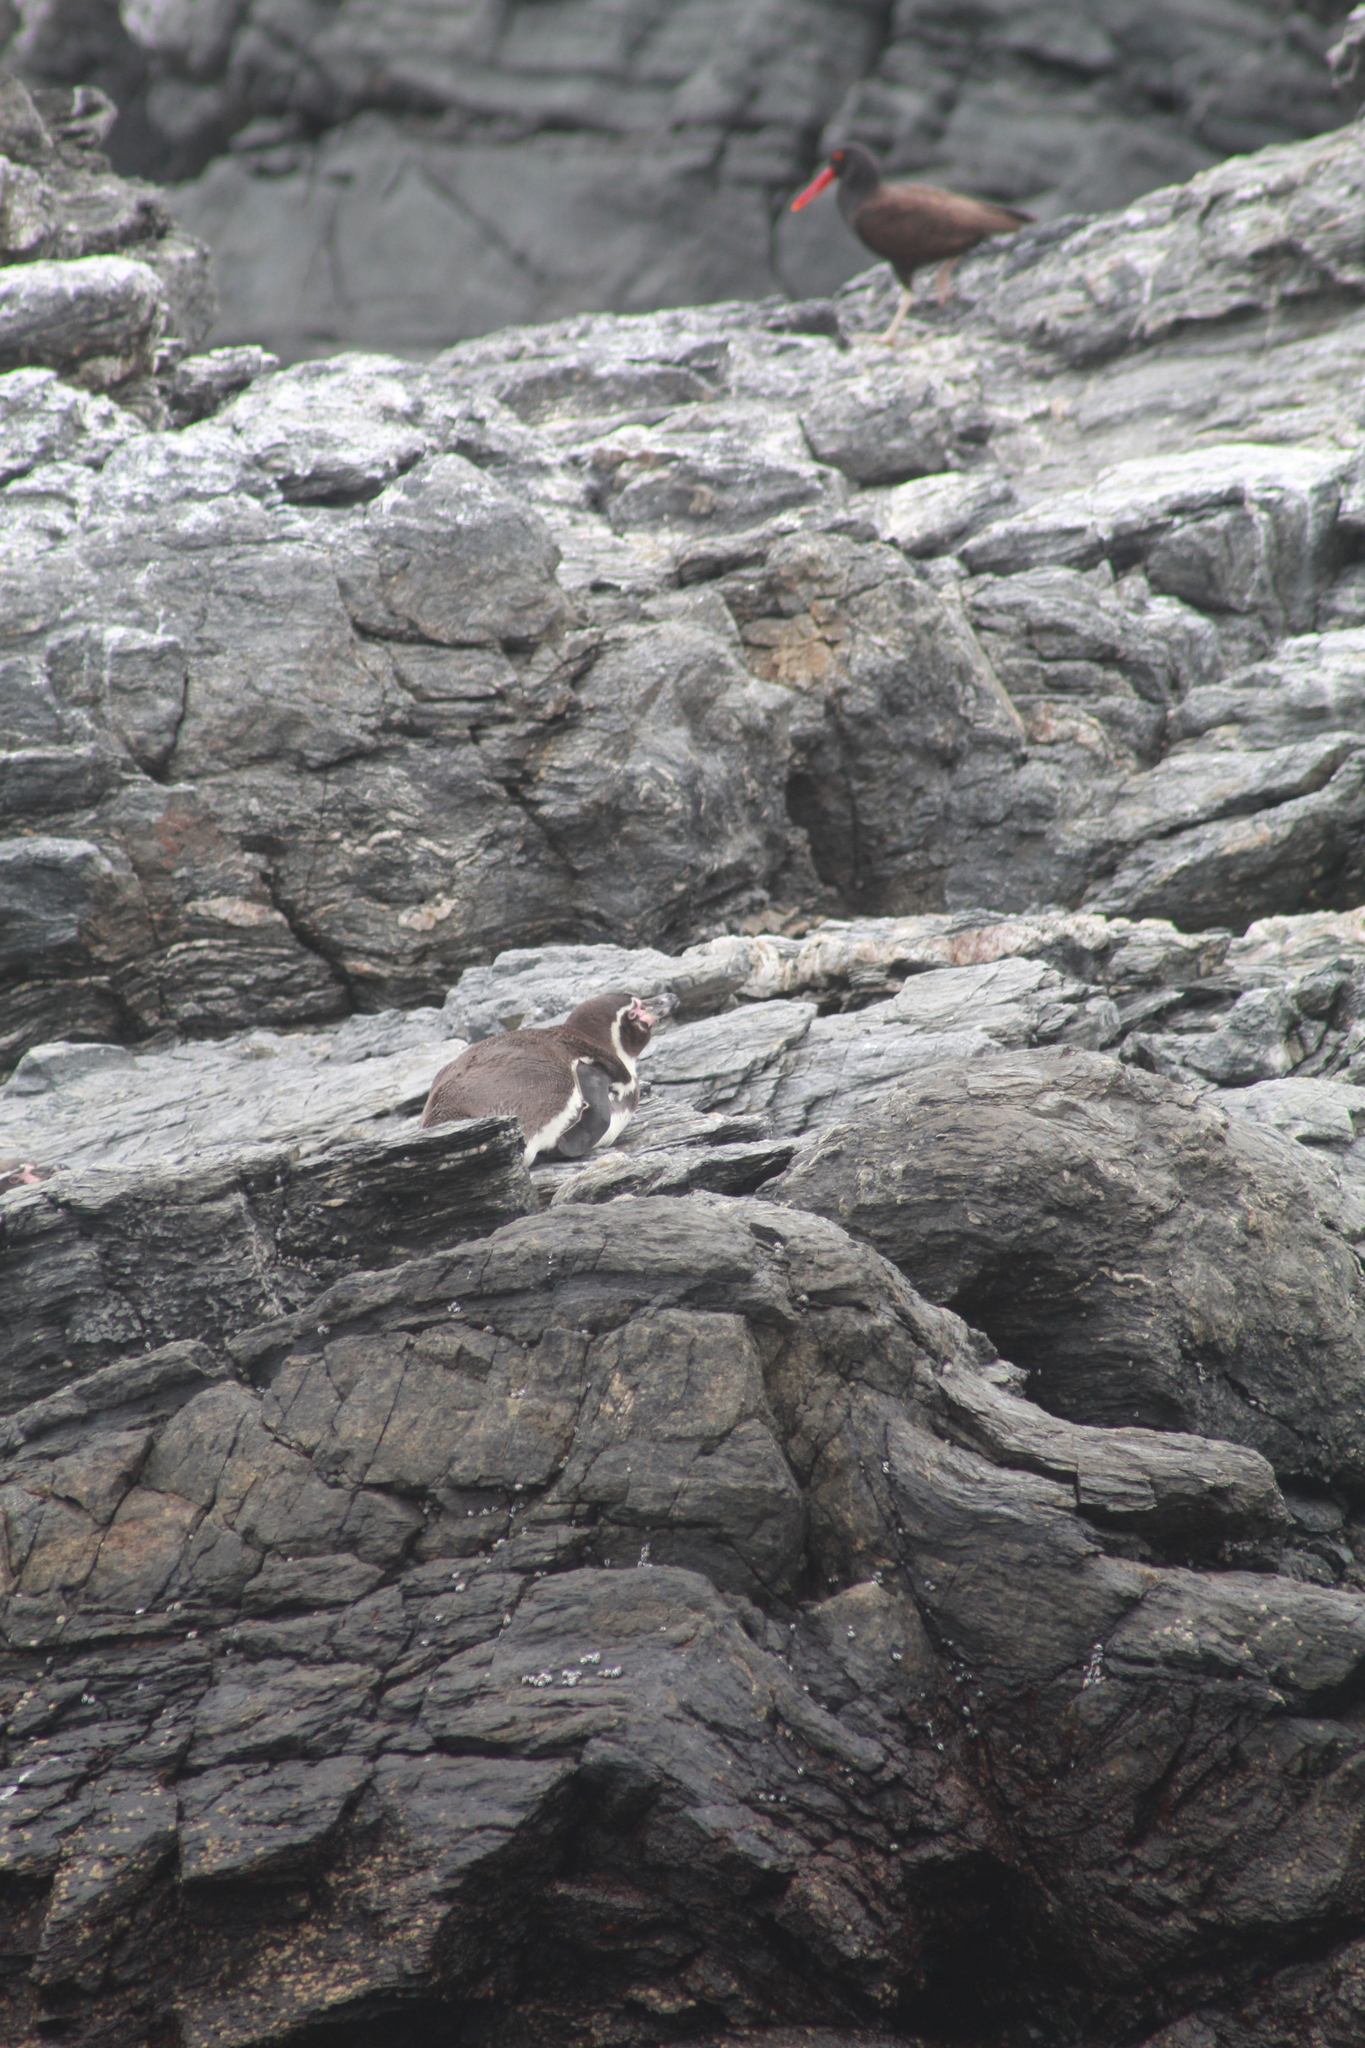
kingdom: Animalia
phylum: Chordata
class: Aves
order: Sphenisciformes
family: Spheniscidae
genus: Spheniscus
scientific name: Spheniscus humboldti
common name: Humboldt penguin
